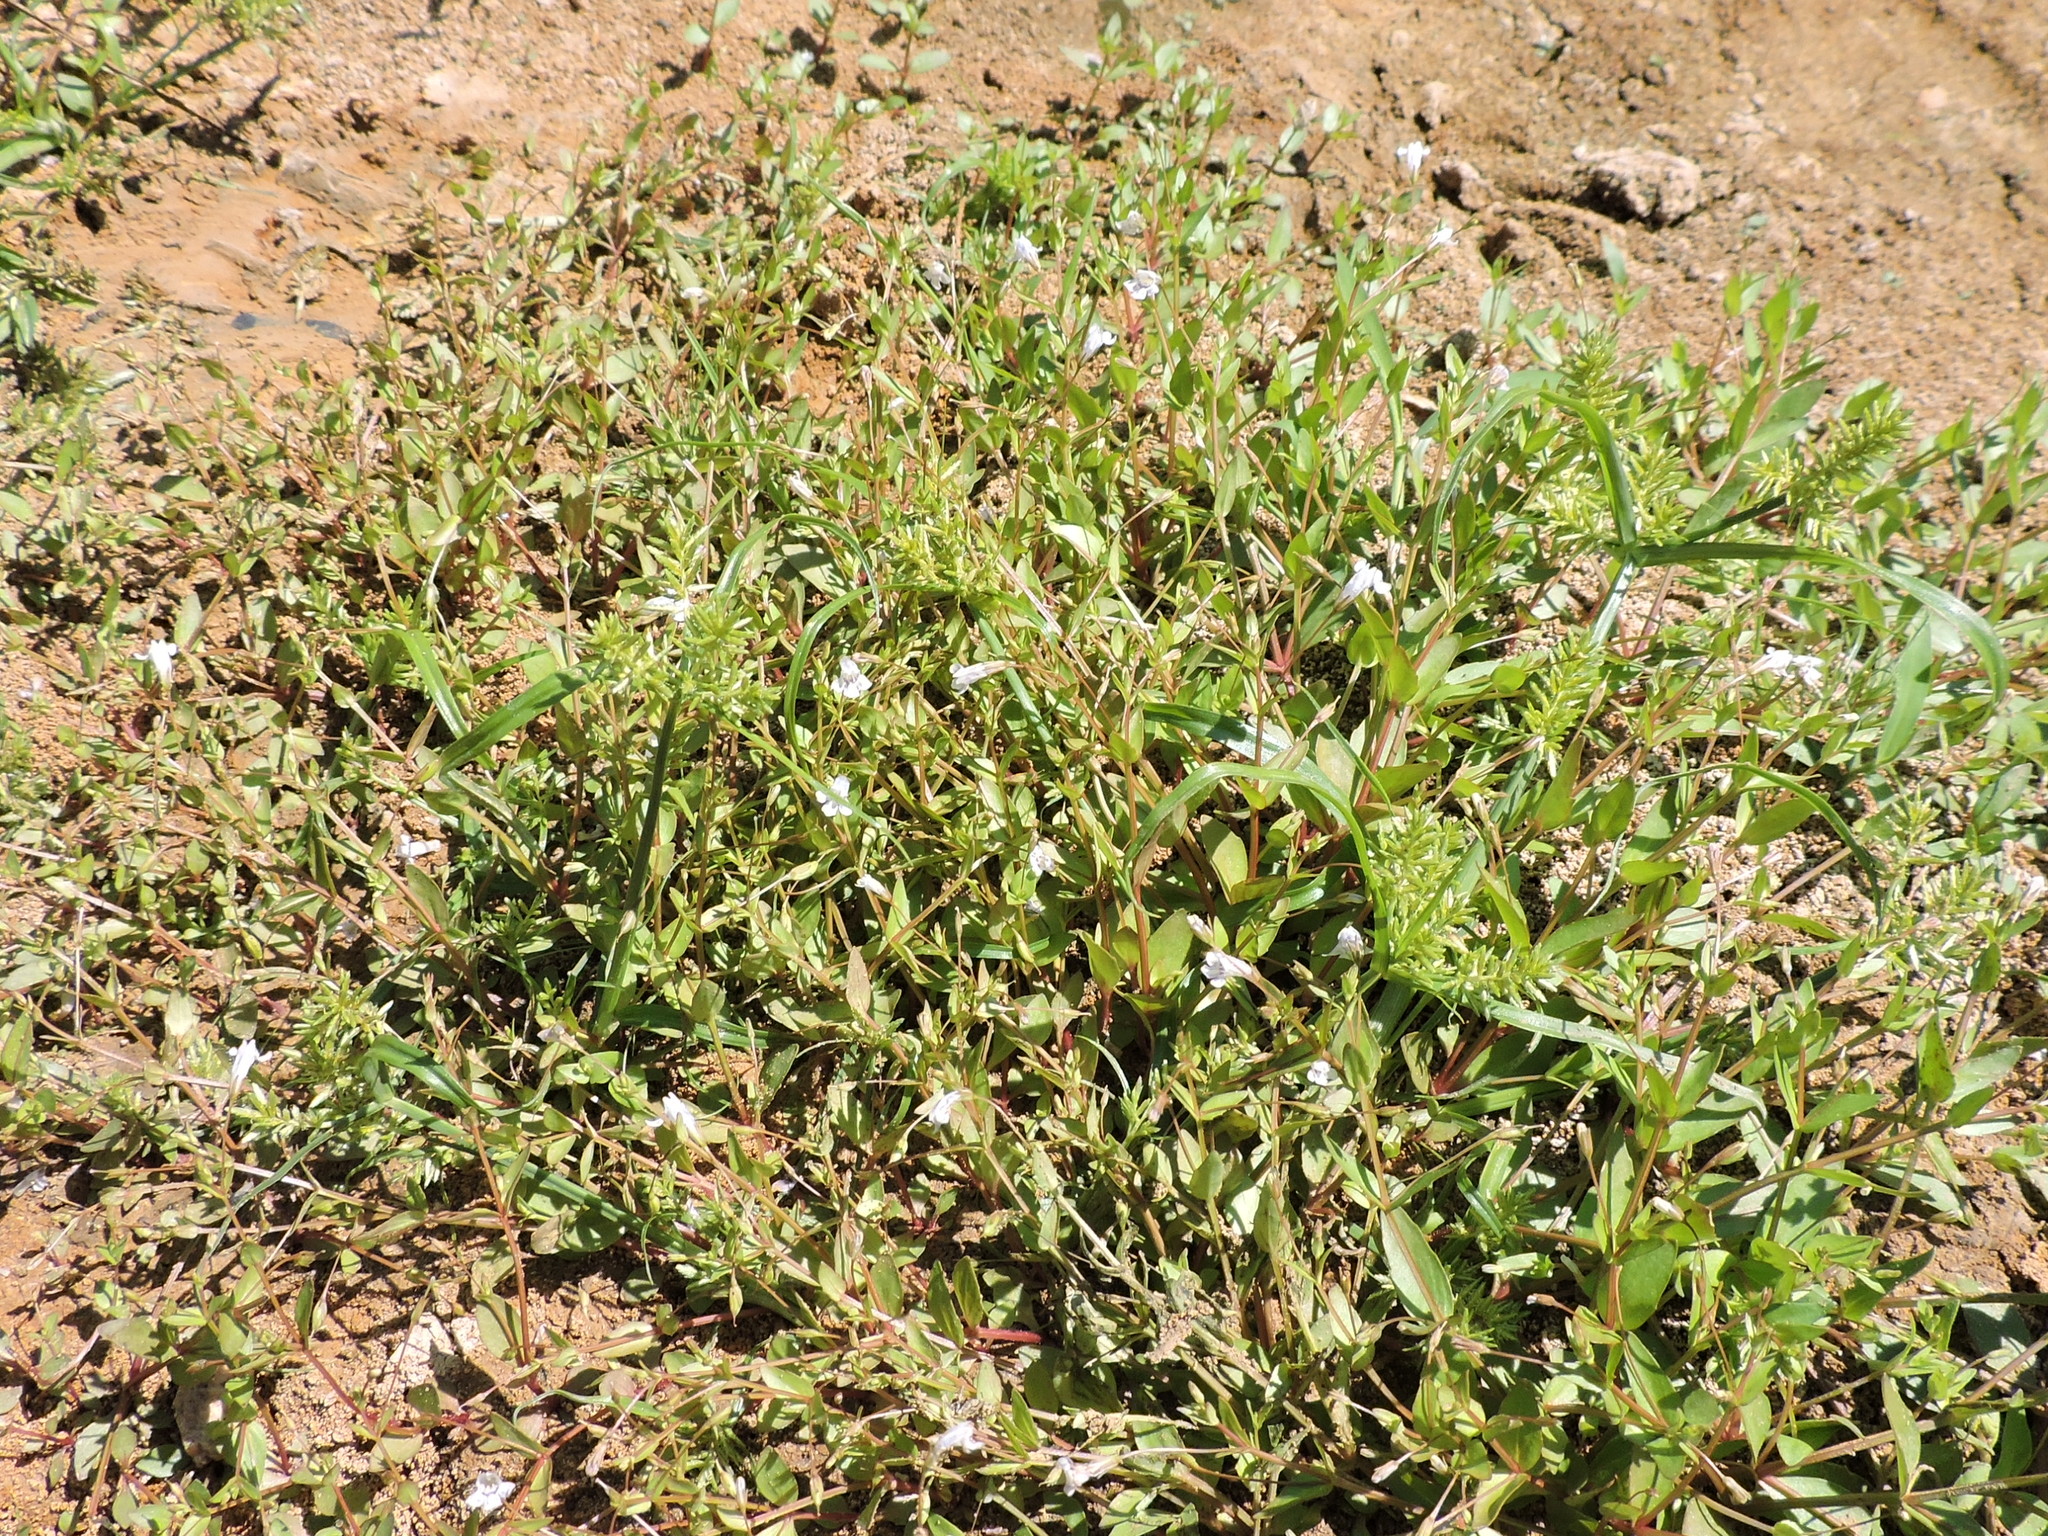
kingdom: Plantae
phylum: Tracheophyta
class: Magnoliopsida
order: Lamiales
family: Linderniaceae
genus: Lindernia
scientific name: Lindernia dubia
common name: Annual false pimpernel
